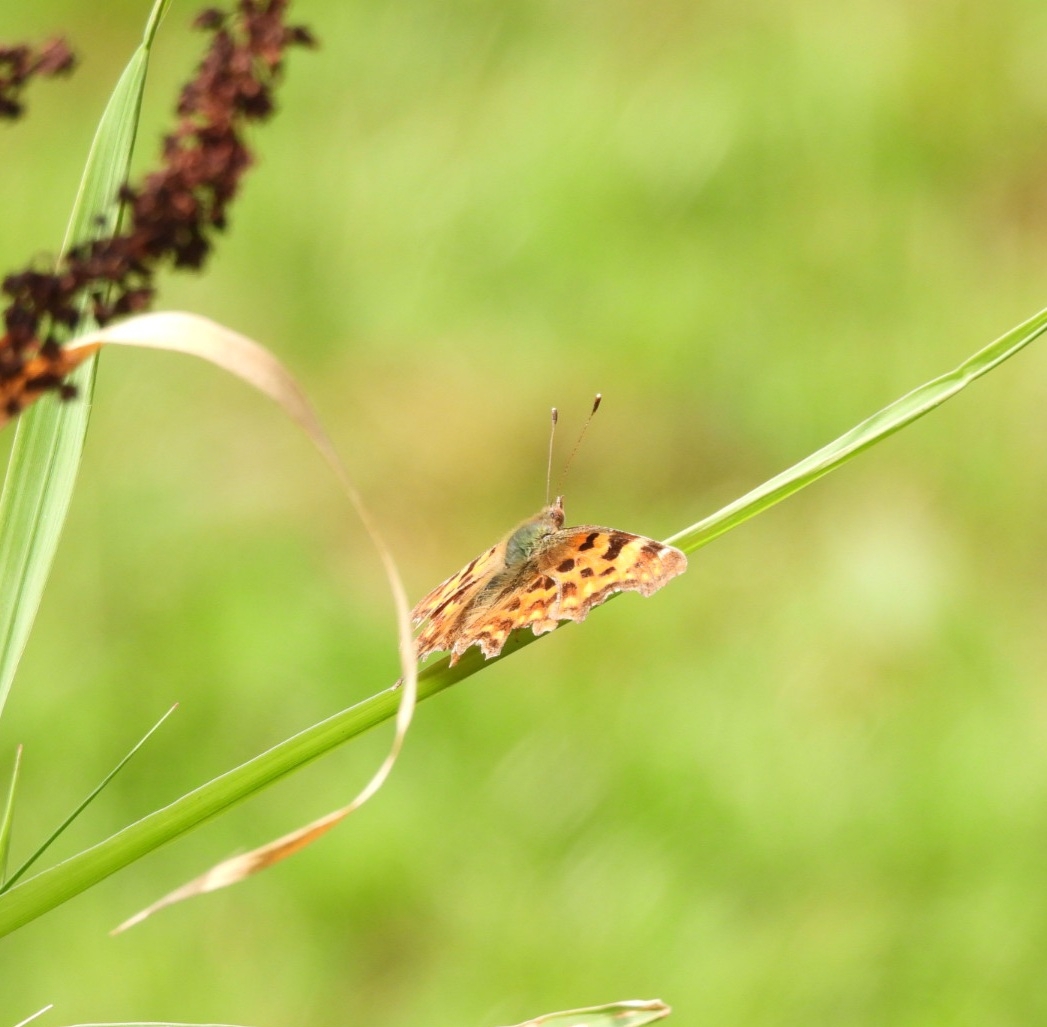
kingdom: Animalia
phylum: Arthropoda
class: Insecta
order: Lepidoptera
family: Nymphalidae
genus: Polygonia
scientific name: Polygonia c-album
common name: Comma
